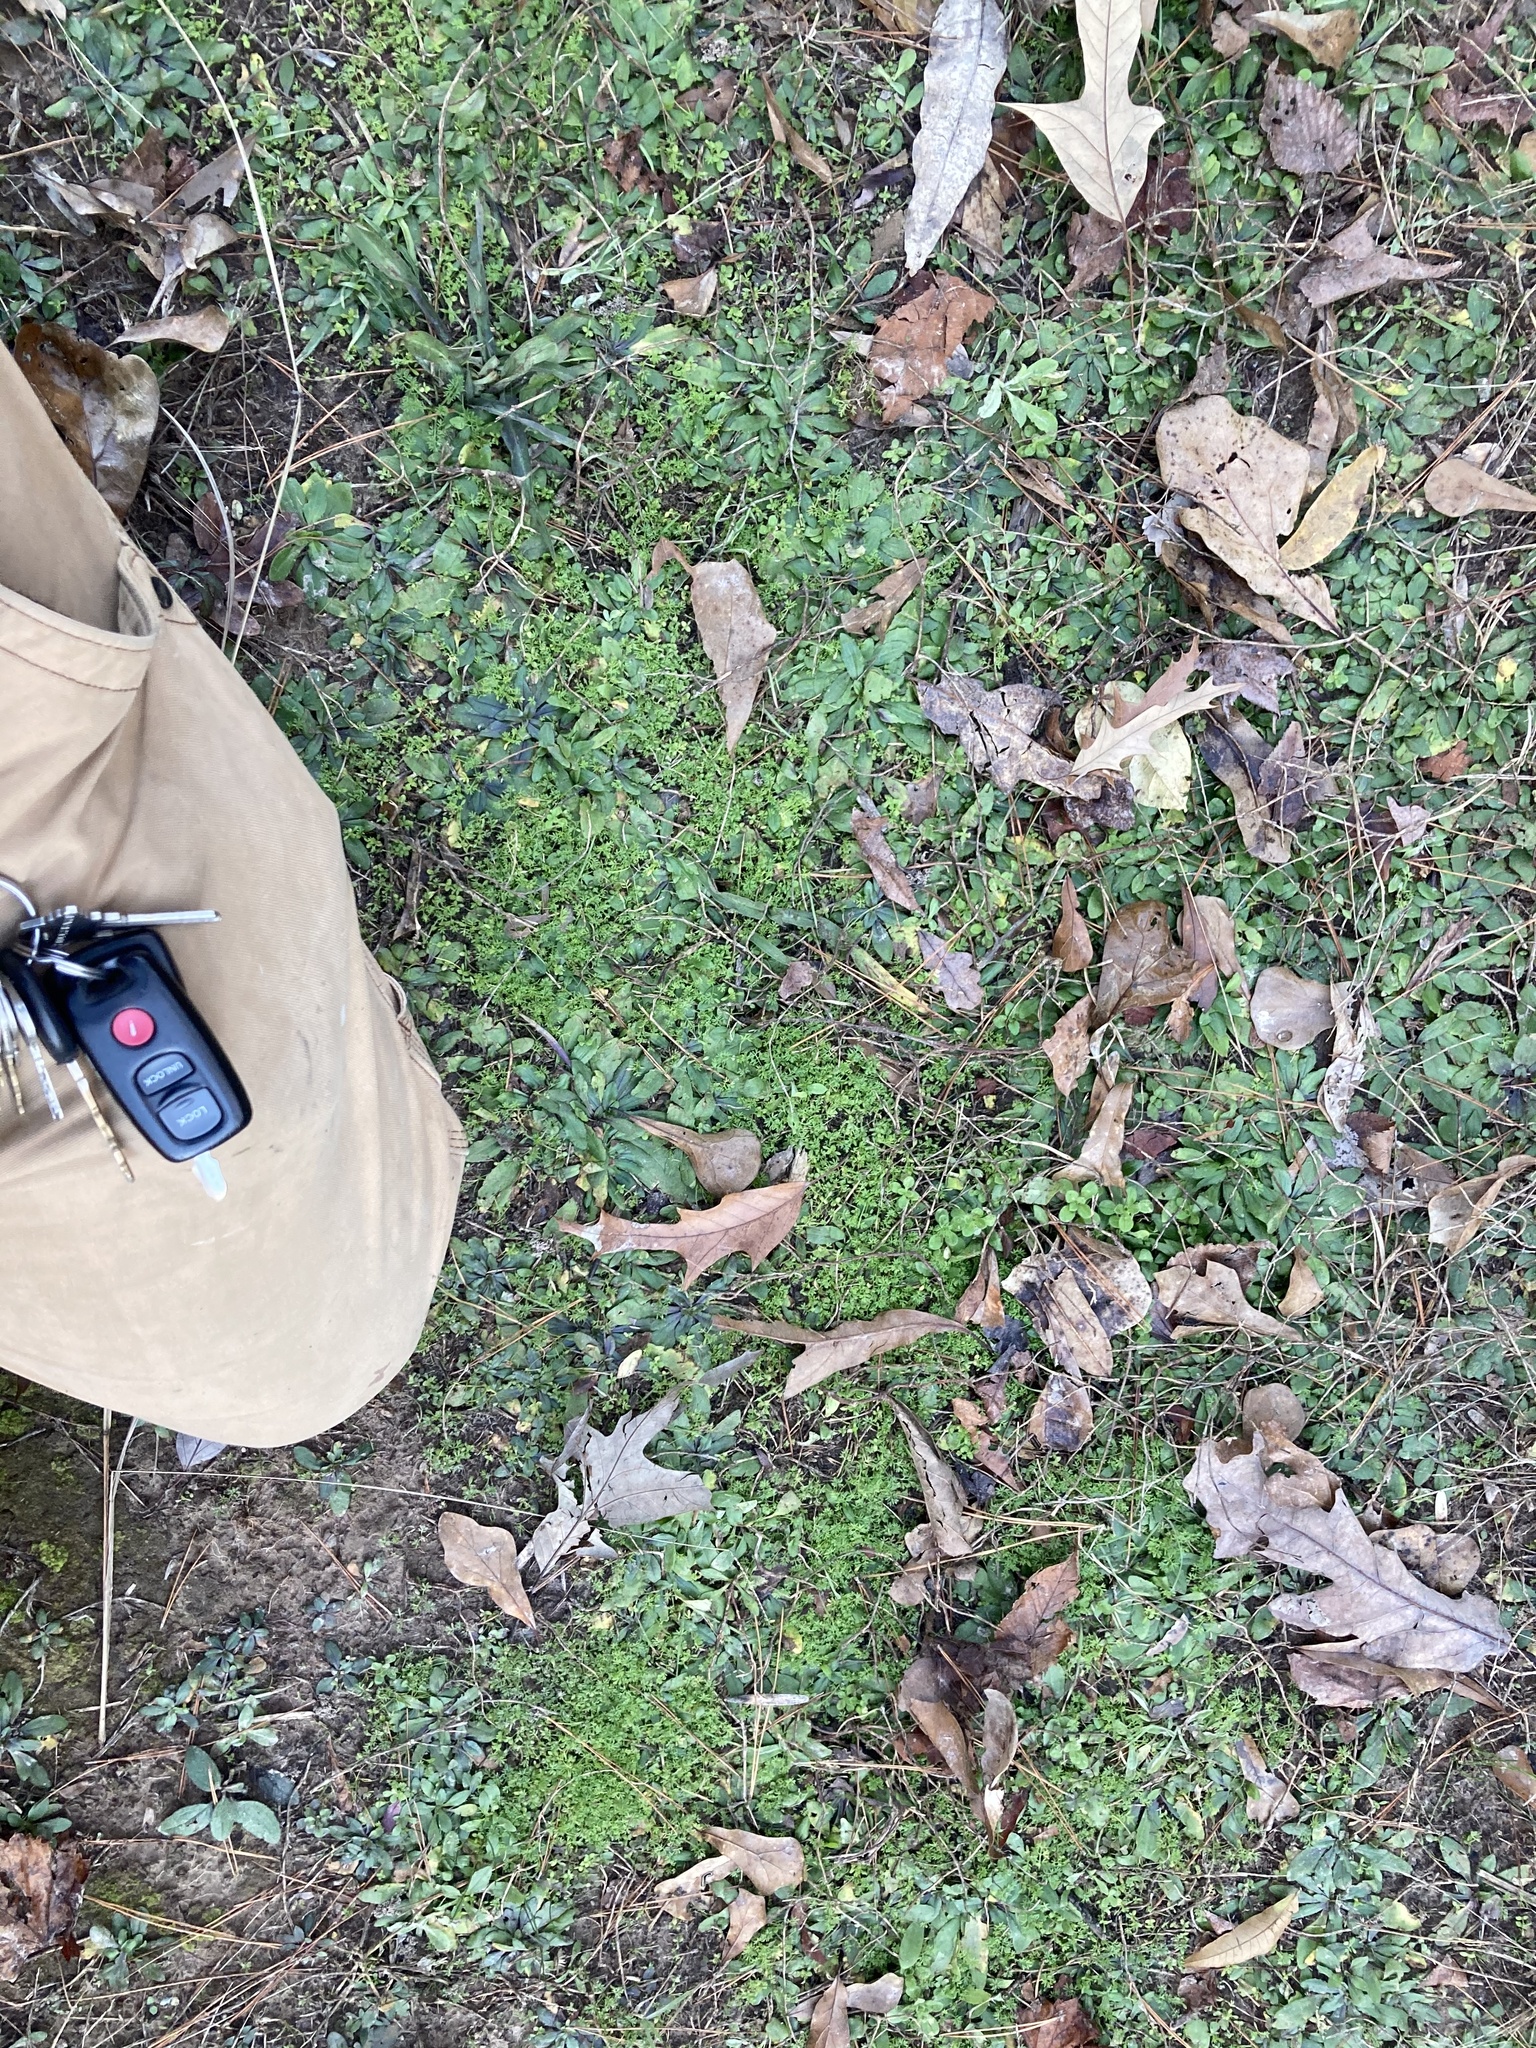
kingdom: Plantae
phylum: Tracheophyta
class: Magnoliopsida
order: Asterales
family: Asteraceae
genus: Soliva
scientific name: Soliva sessilis
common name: Field burrweed
